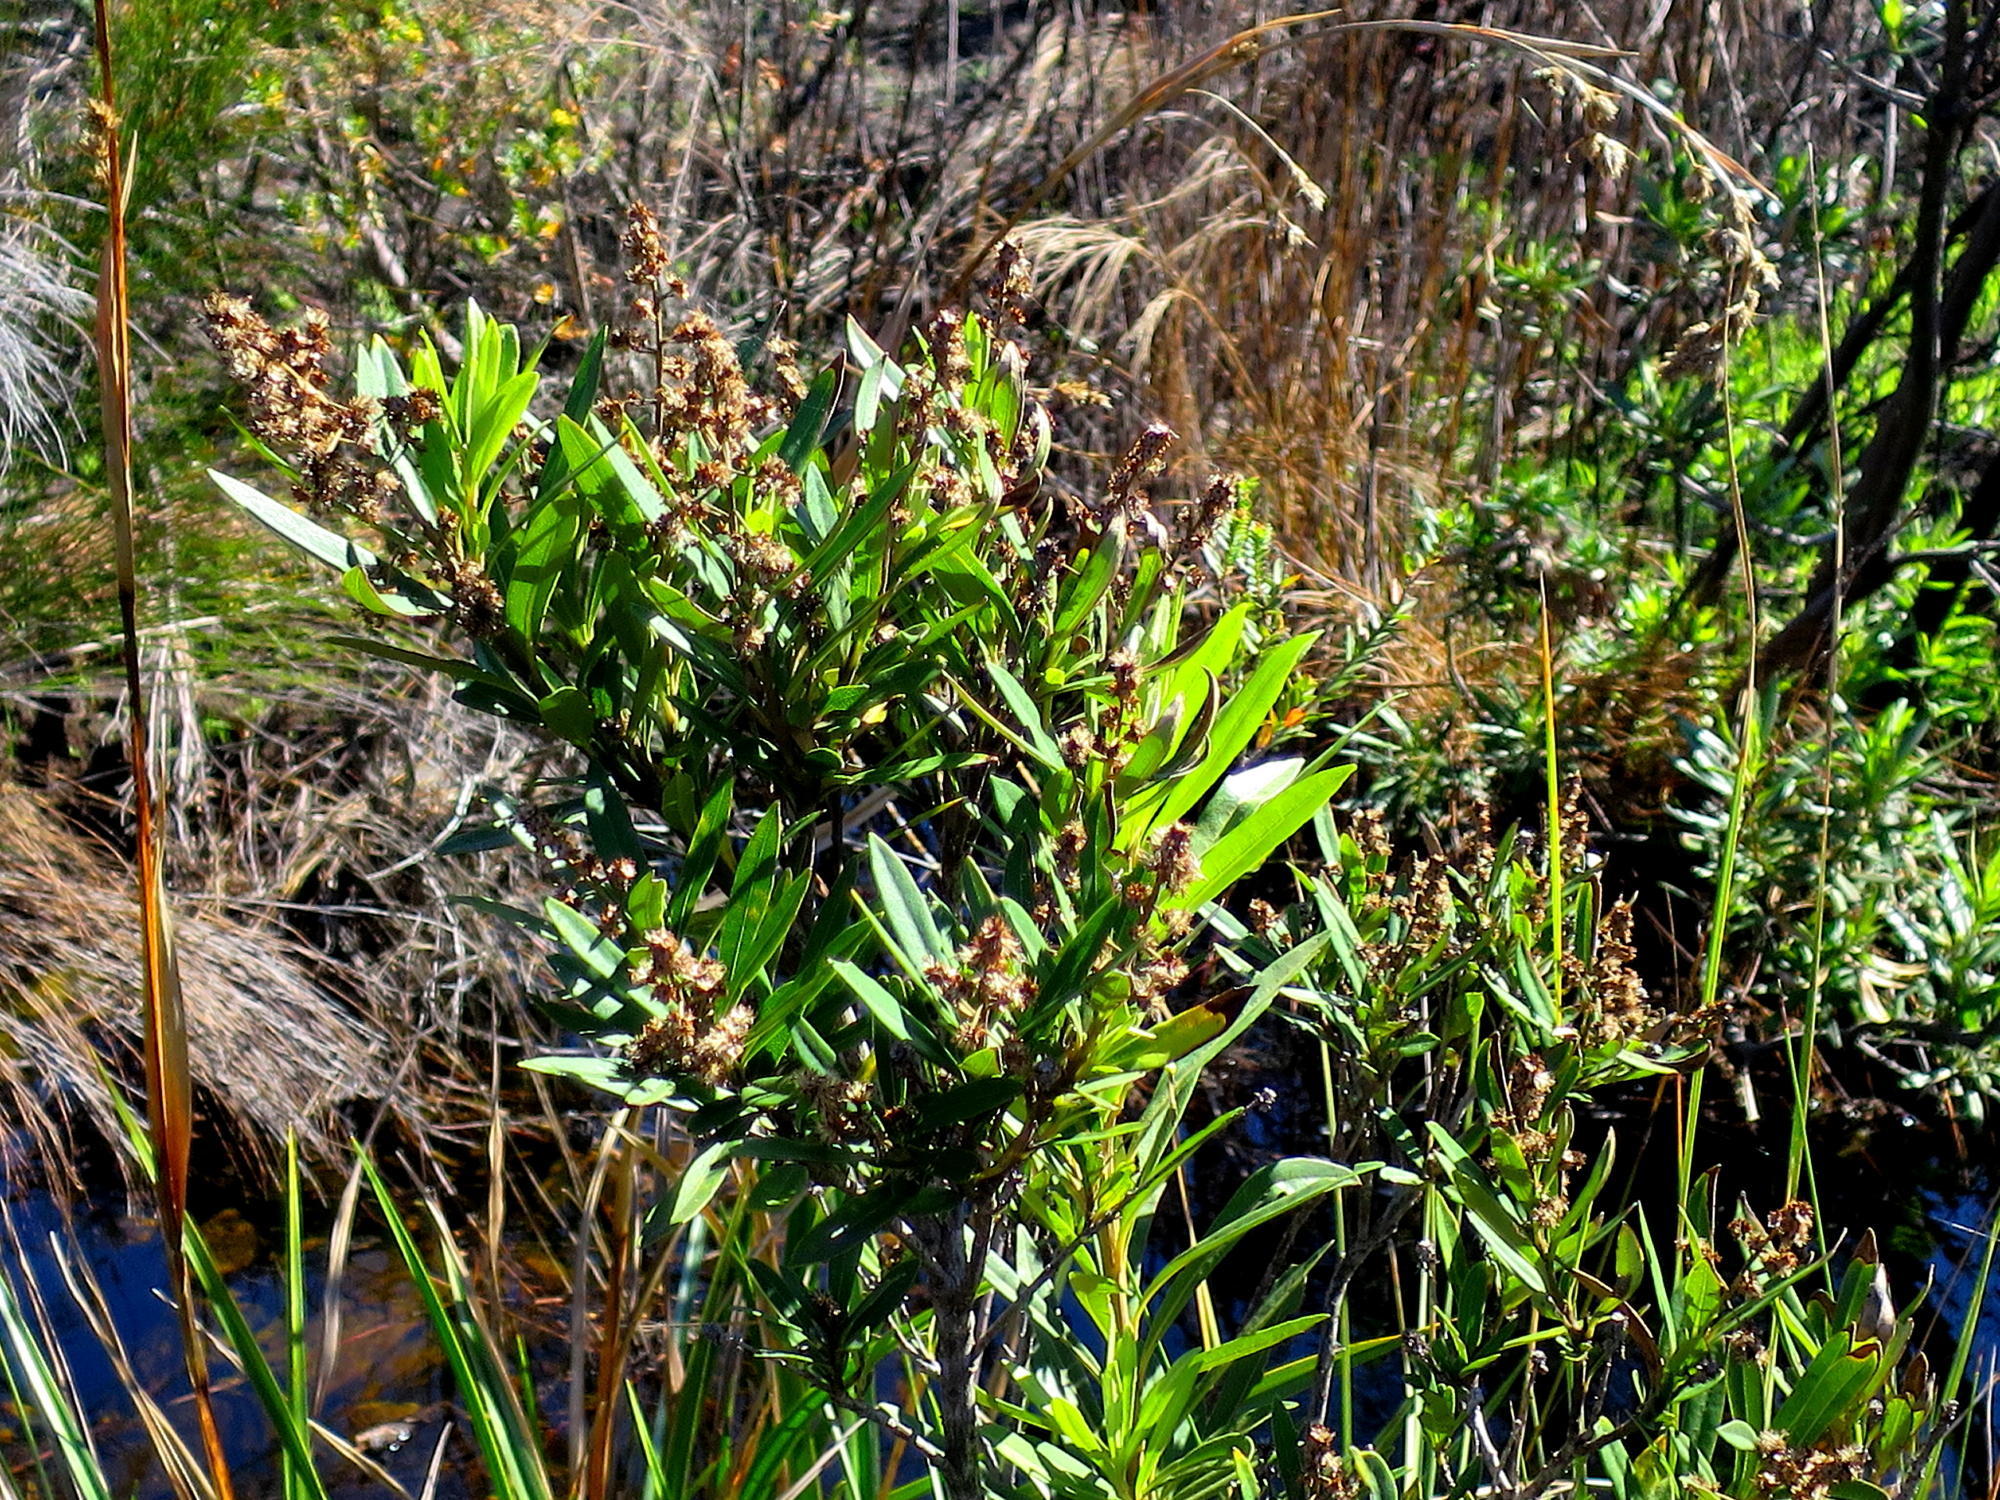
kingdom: Plantae
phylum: Tracheophyta
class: Magnoliopsida
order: Asterales
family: Asteraceae
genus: Brachylaena
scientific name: Brachylaena neriifolia
